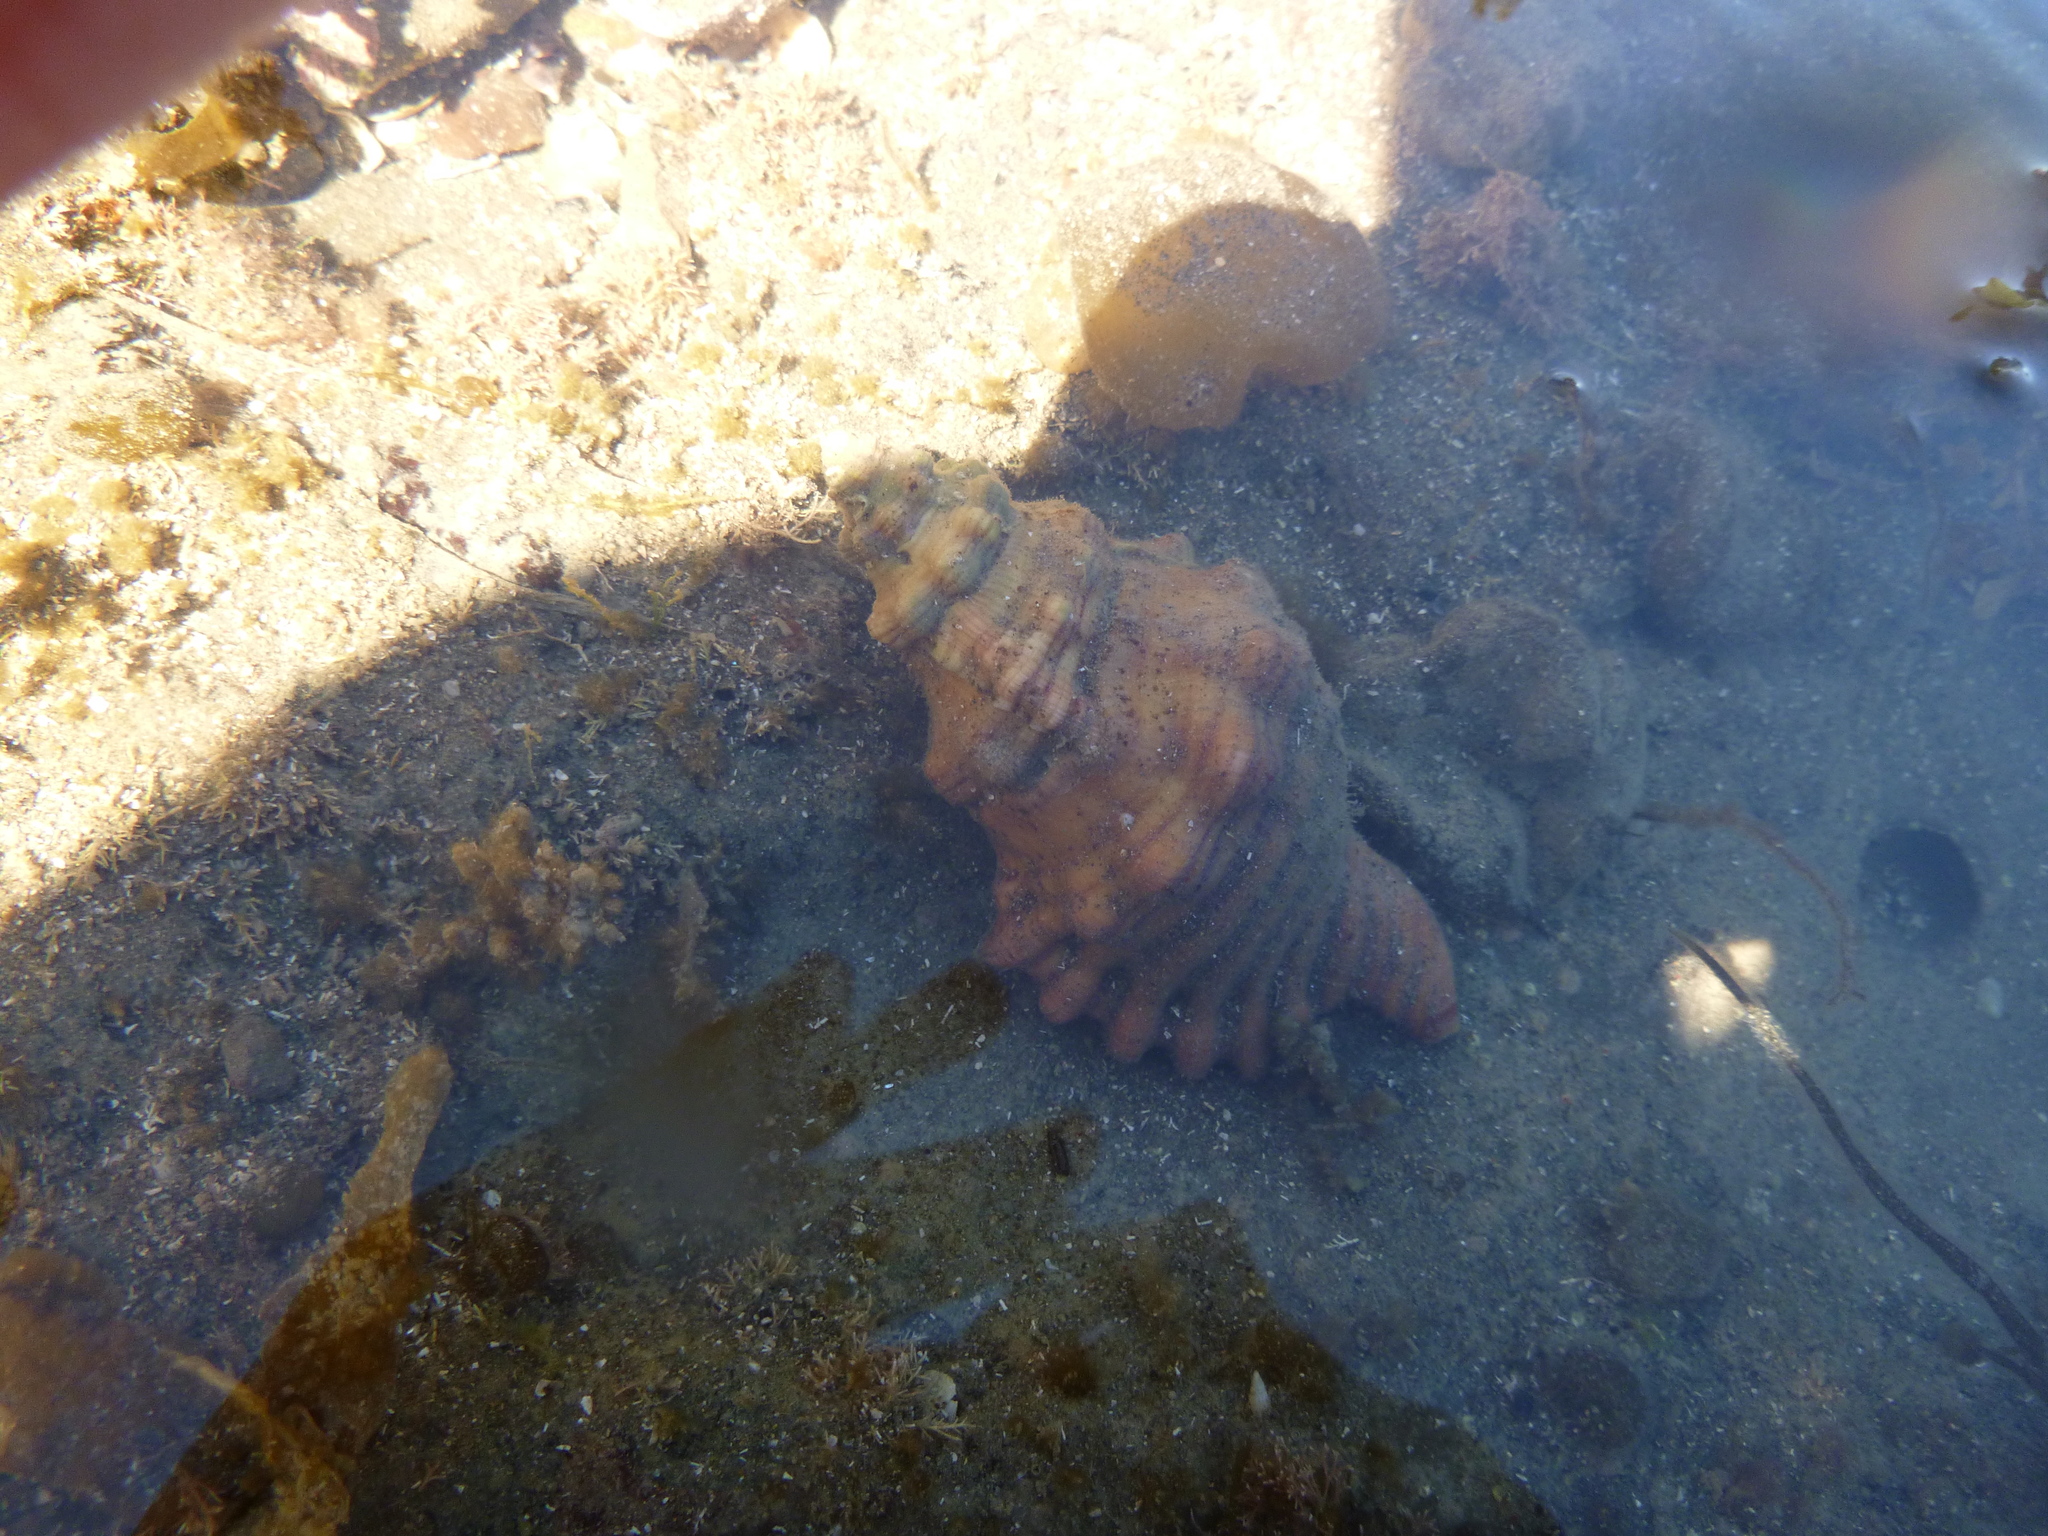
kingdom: Animalia
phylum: Mollusca
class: Gastropoda
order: Littorinimorpha
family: Cymatiidae
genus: Cabestana
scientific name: Cabestana spengleri
